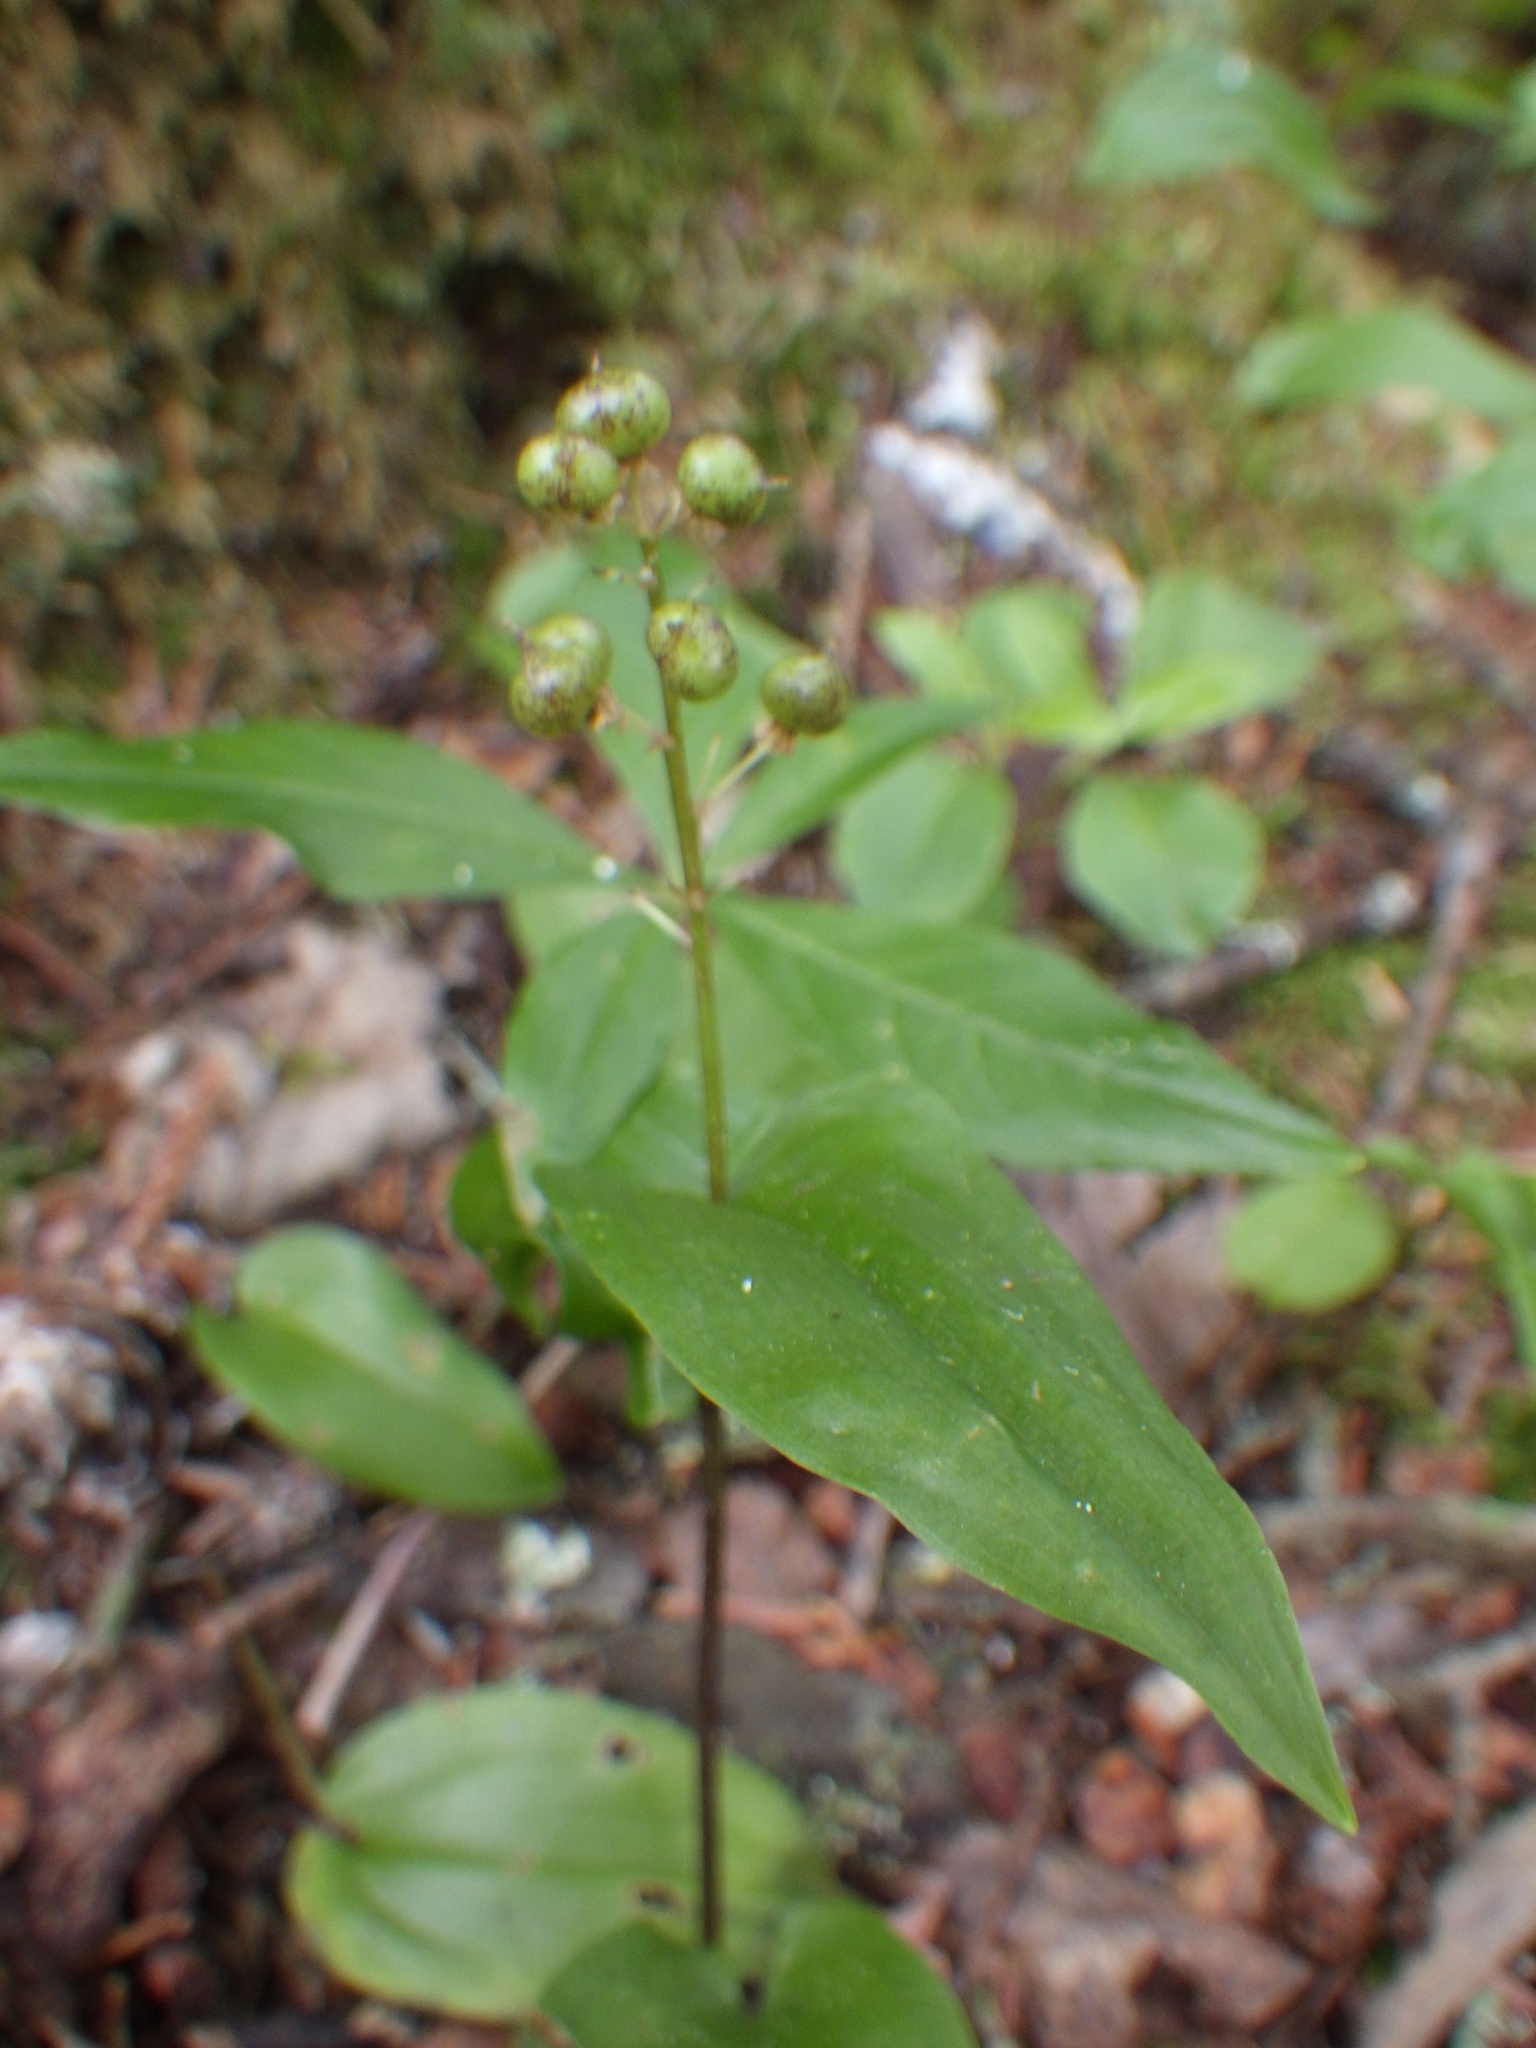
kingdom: Plantae
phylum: Tracheophyta
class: Liliopsida
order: Asparagales
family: Asparagaceae
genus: Maianthemum
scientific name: Maianthemum canadense
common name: False lily-of-the-valley
